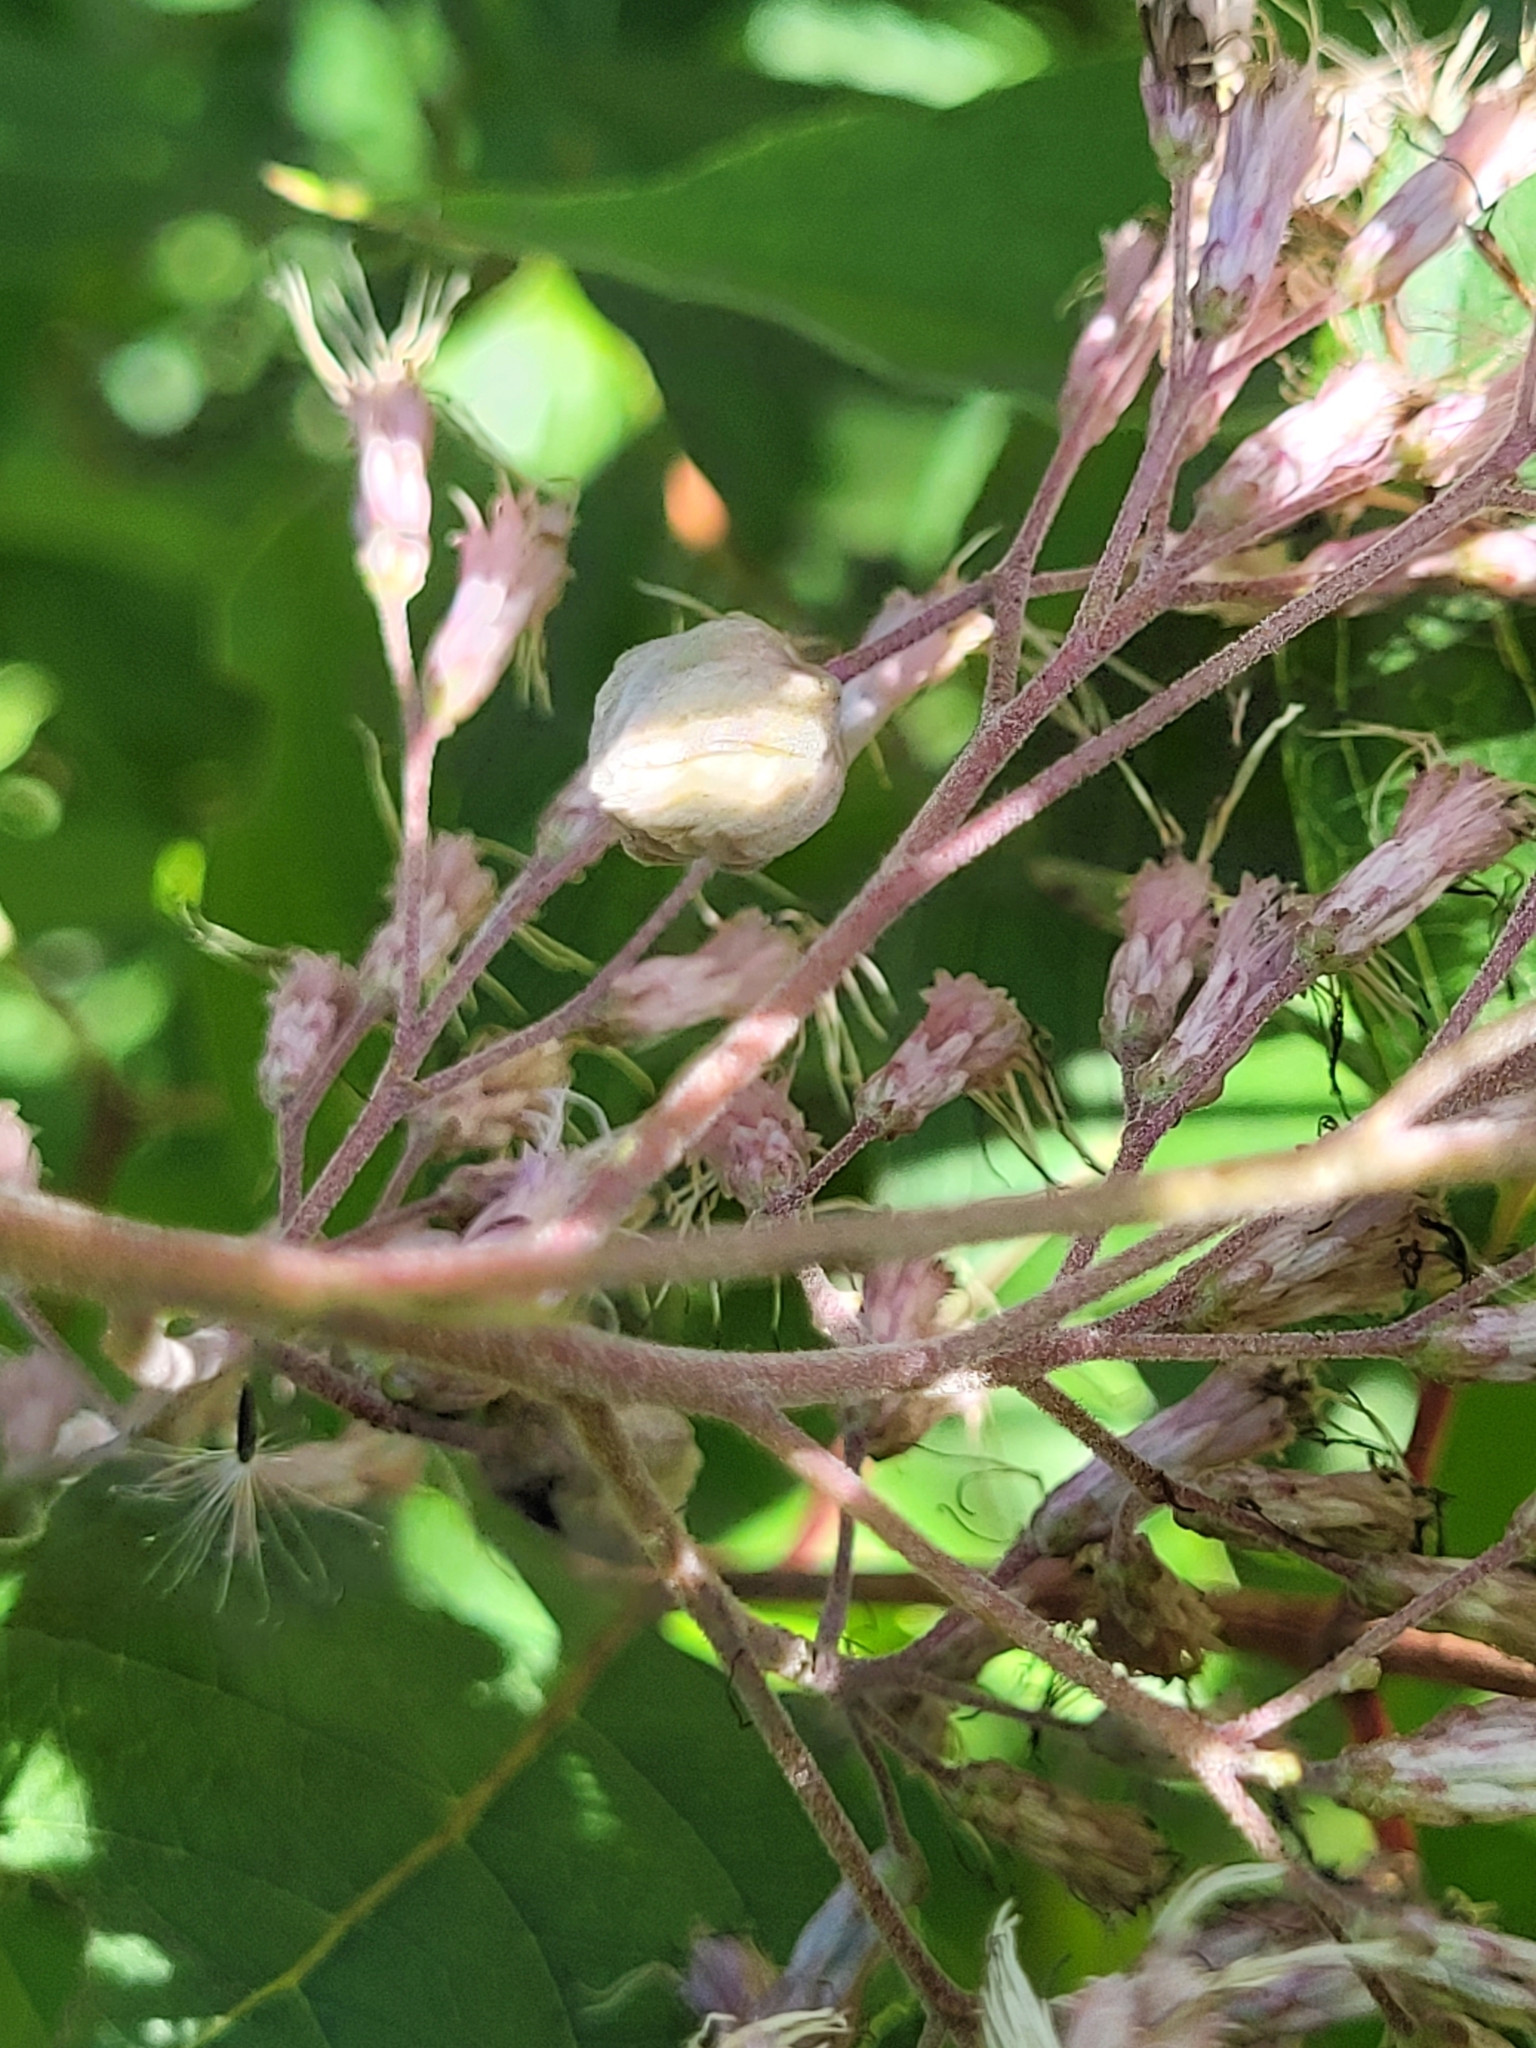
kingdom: Animalia
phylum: Arthropoda
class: Insecta
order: Diptera
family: Cecidomyiidae
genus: Anthodiplosis
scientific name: Anthodiplosis eutrochii
